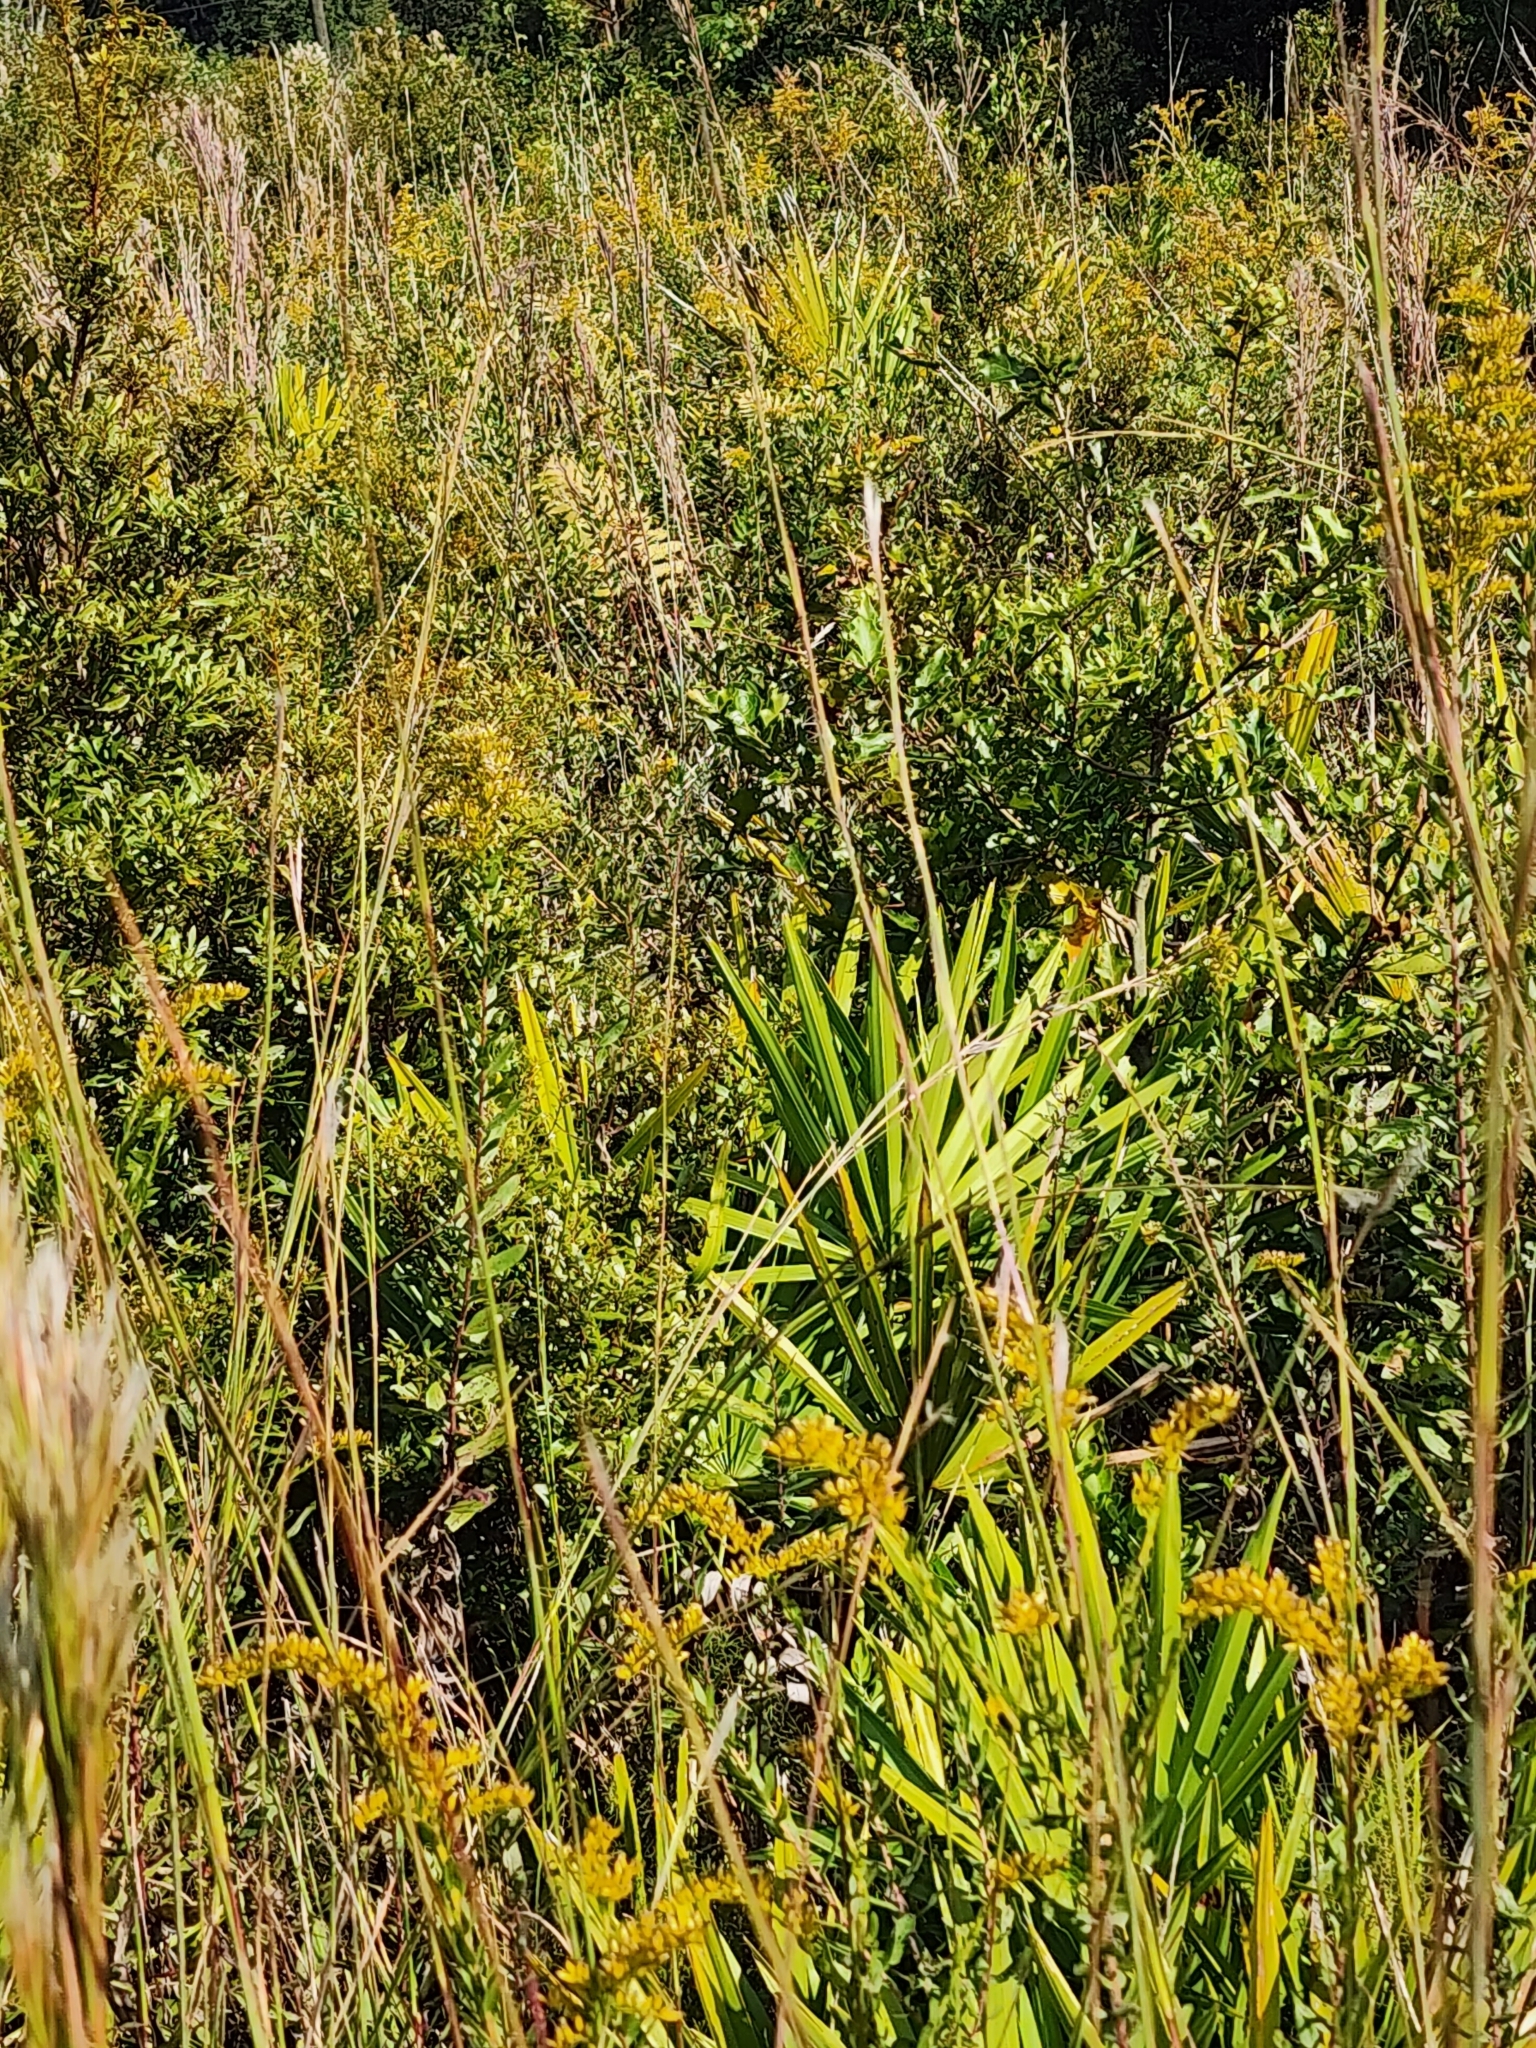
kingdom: Plantae
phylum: Tracheophyta
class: Magnoliopsida
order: Asterales
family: Asteraceae
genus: Solidago
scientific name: Solidago fistulosa
